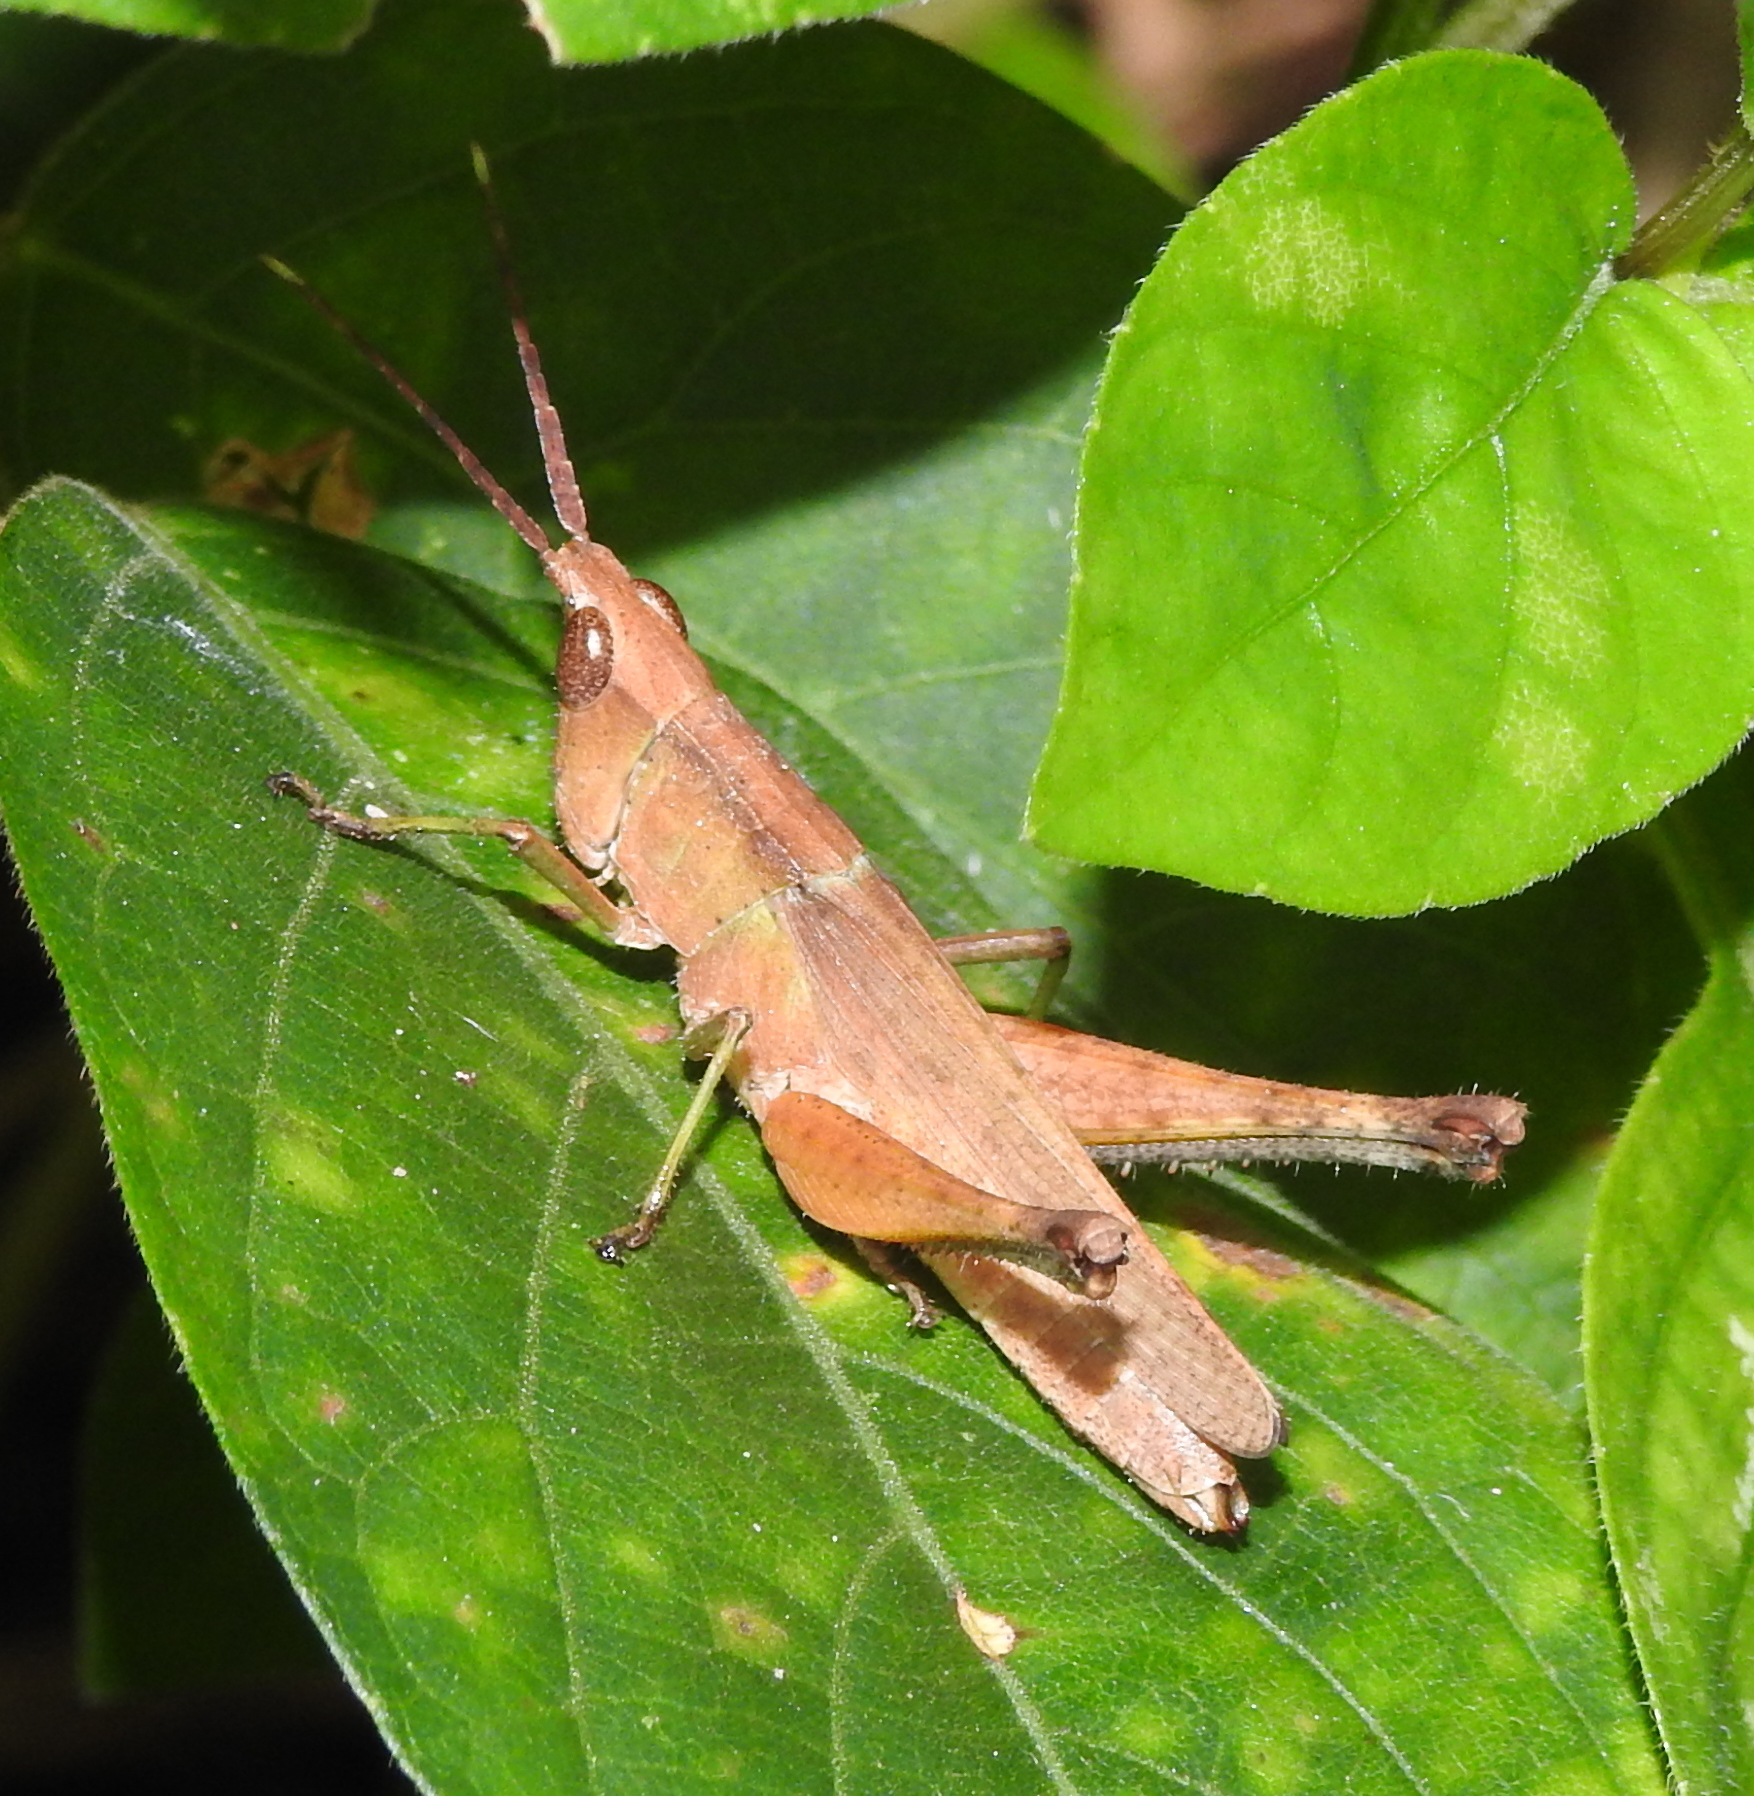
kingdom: Animalia
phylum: Arthropoda
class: Insecta
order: Orthoptera
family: Acrididae
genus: Phlaeoba
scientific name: Phlaeoba antennata
